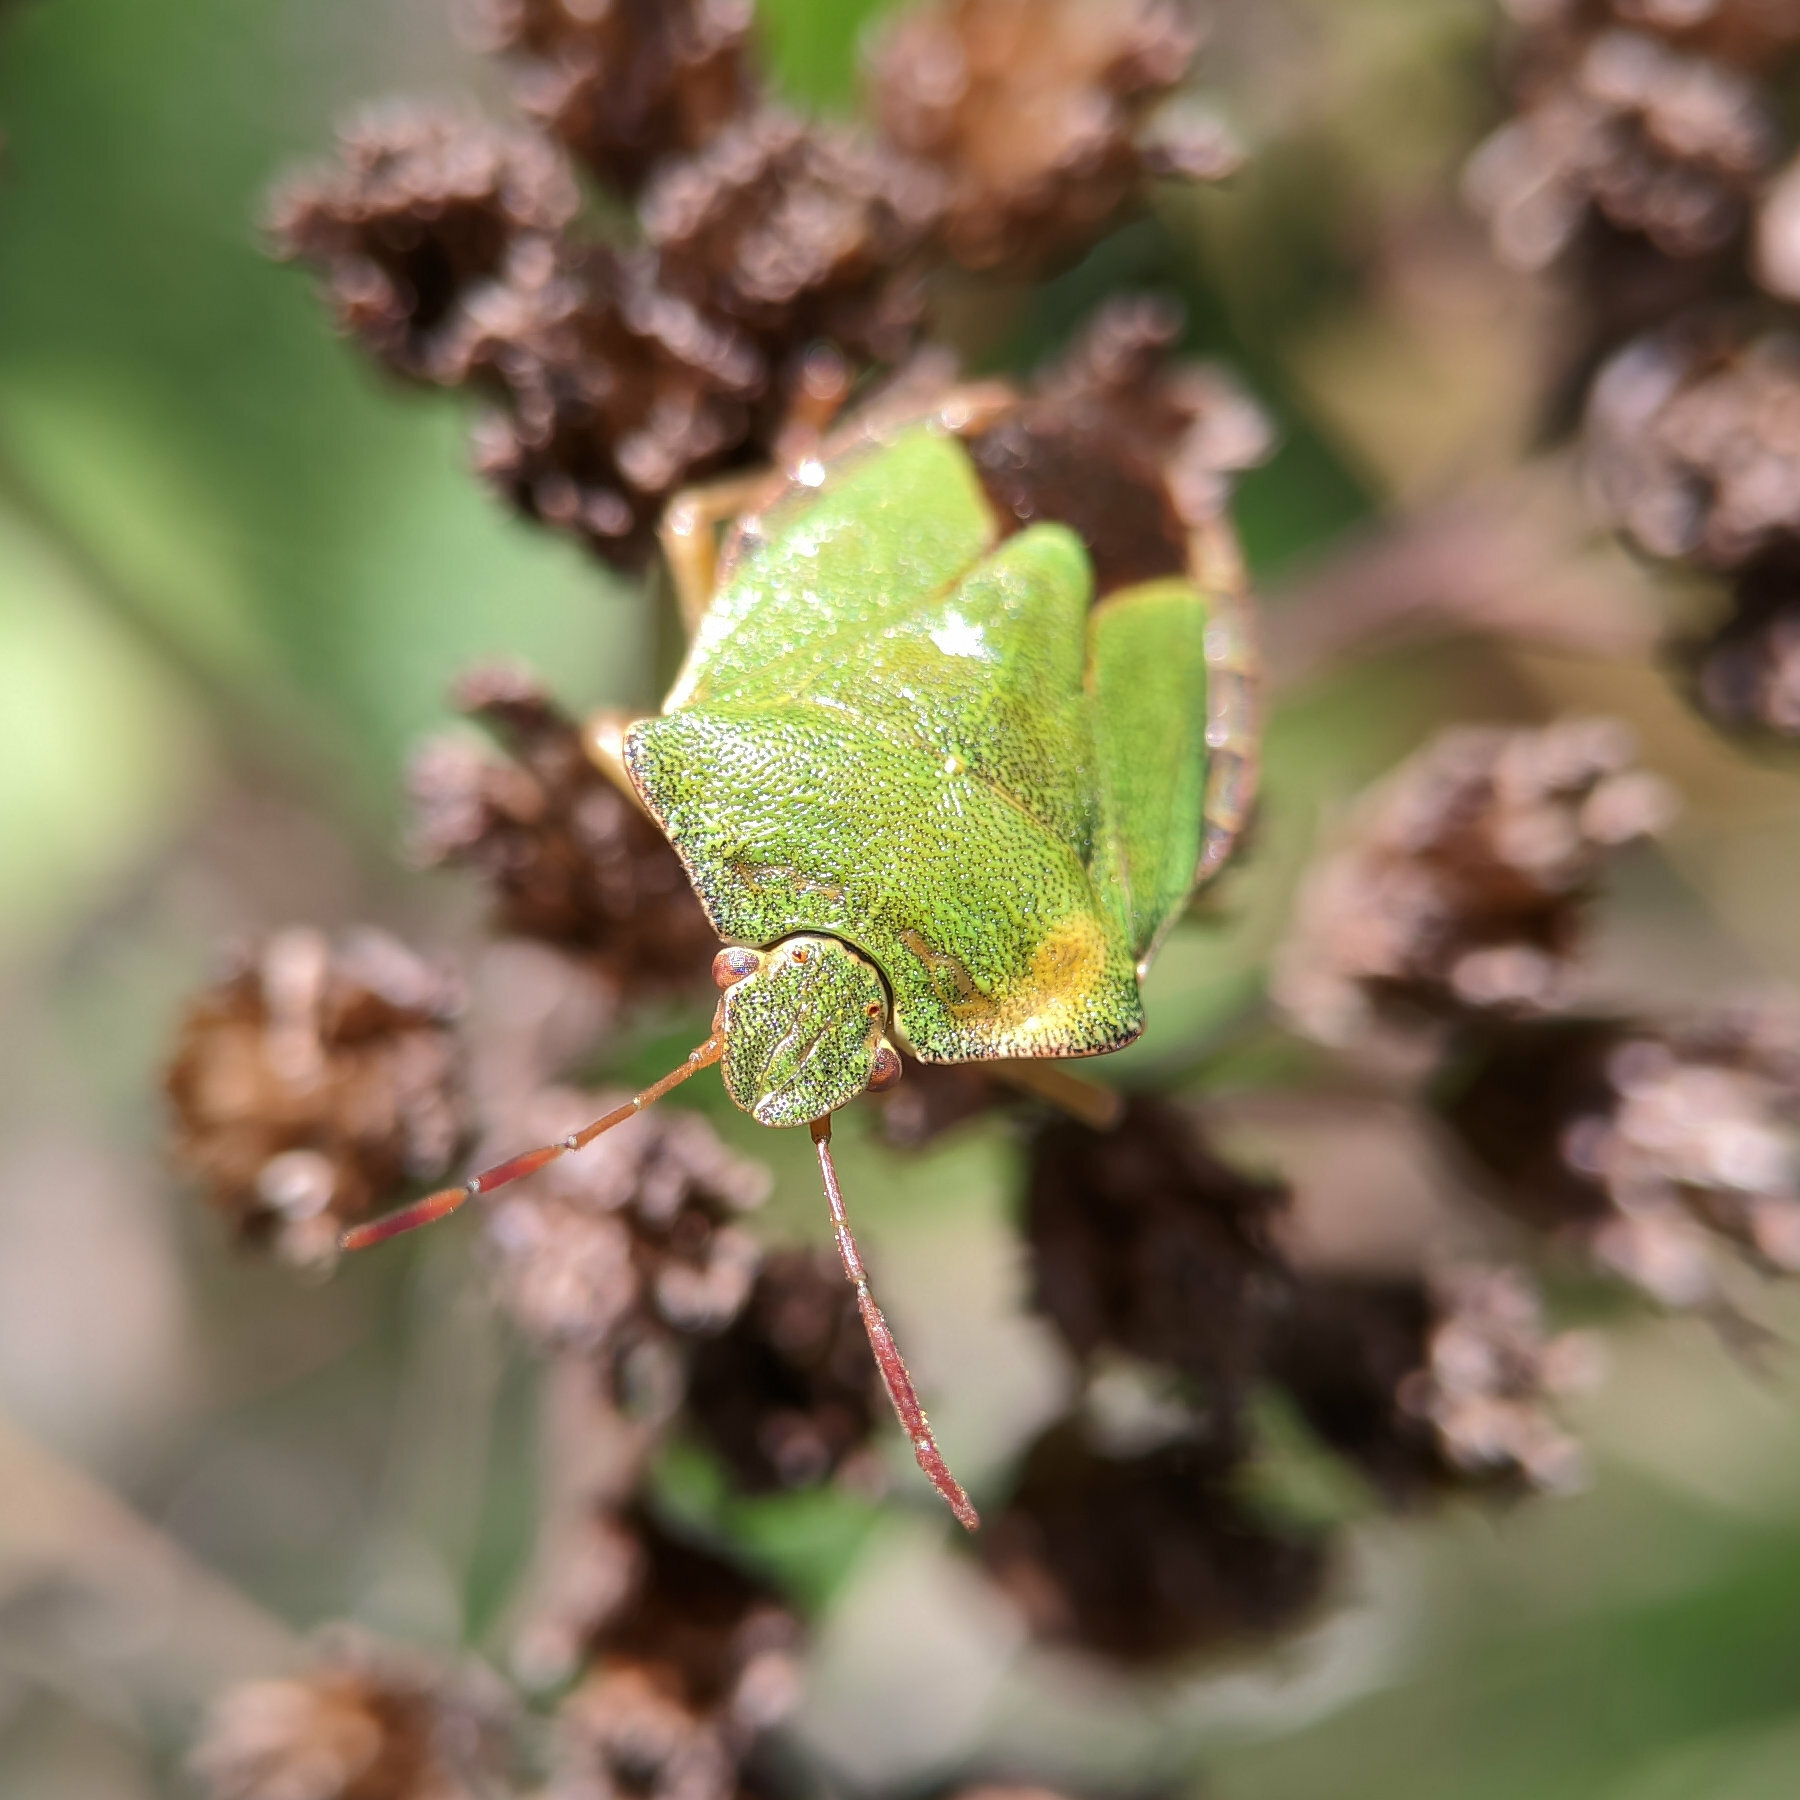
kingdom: Animalia
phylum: Arthropoda
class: Insecta
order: Hemiptera
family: Pentatomidae
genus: Palomena
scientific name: Palomena prasina
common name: Green shieldbug
